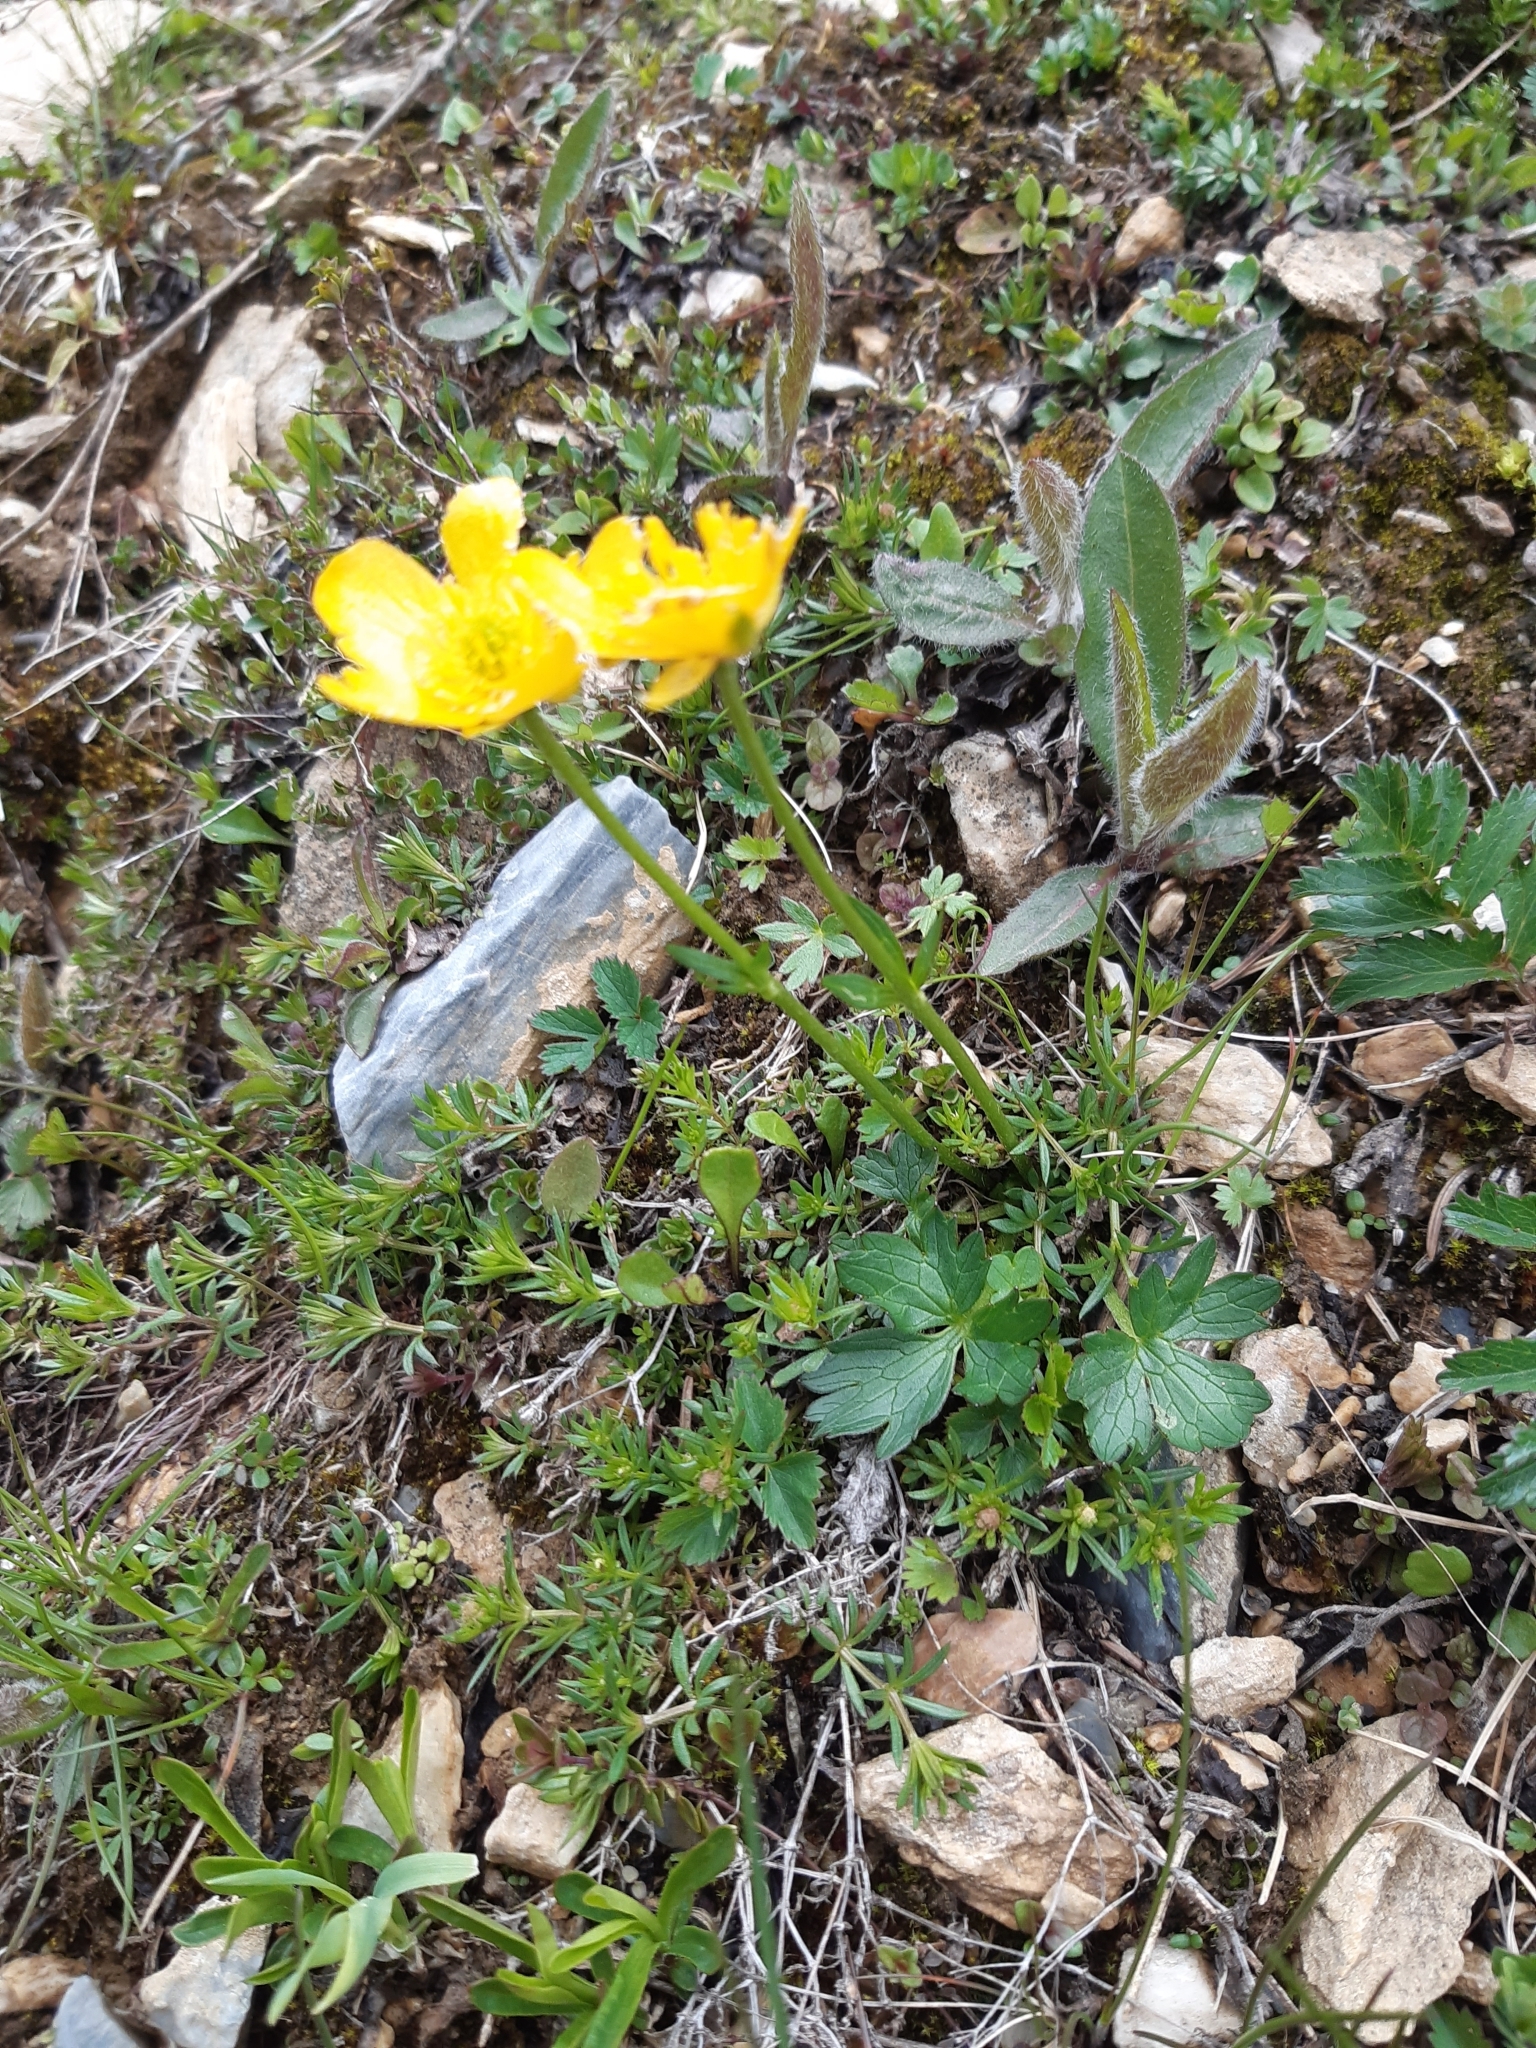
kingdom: Plantae
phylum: Tracheophyta
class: Magnoliopsida
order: Ranunculales
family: Ranunculaceae
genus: Ranunculus
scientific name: Ranunculus montanus
